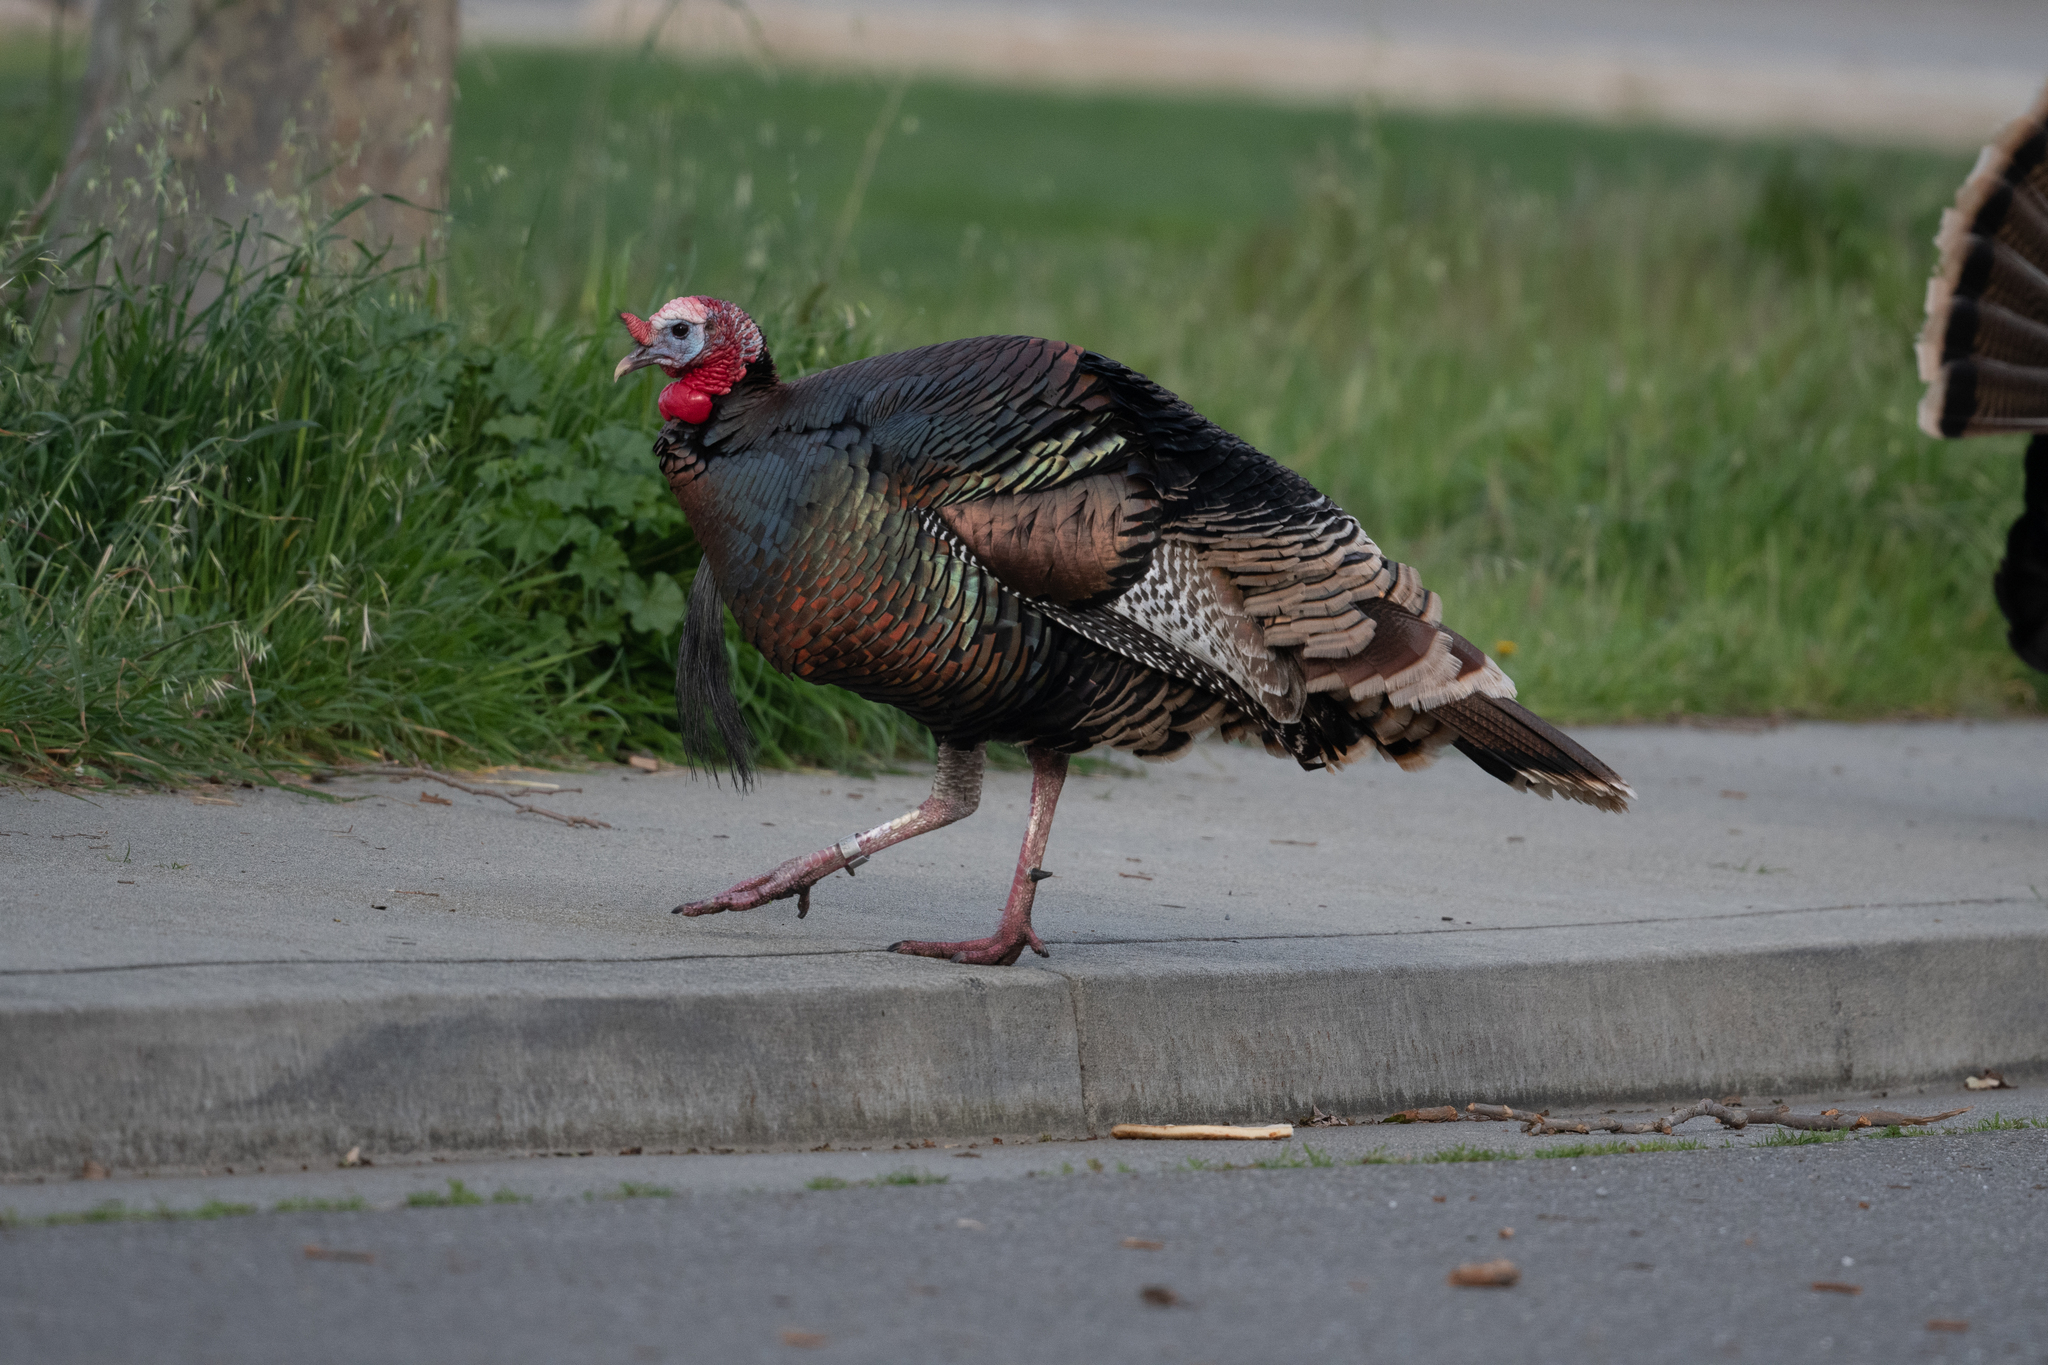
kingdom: Animalia
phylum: Chordata
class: Aves
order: Galliformes
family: Phasianidae
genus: Meleagris
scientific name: Meleagris gallopavo
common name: Wild turkey
